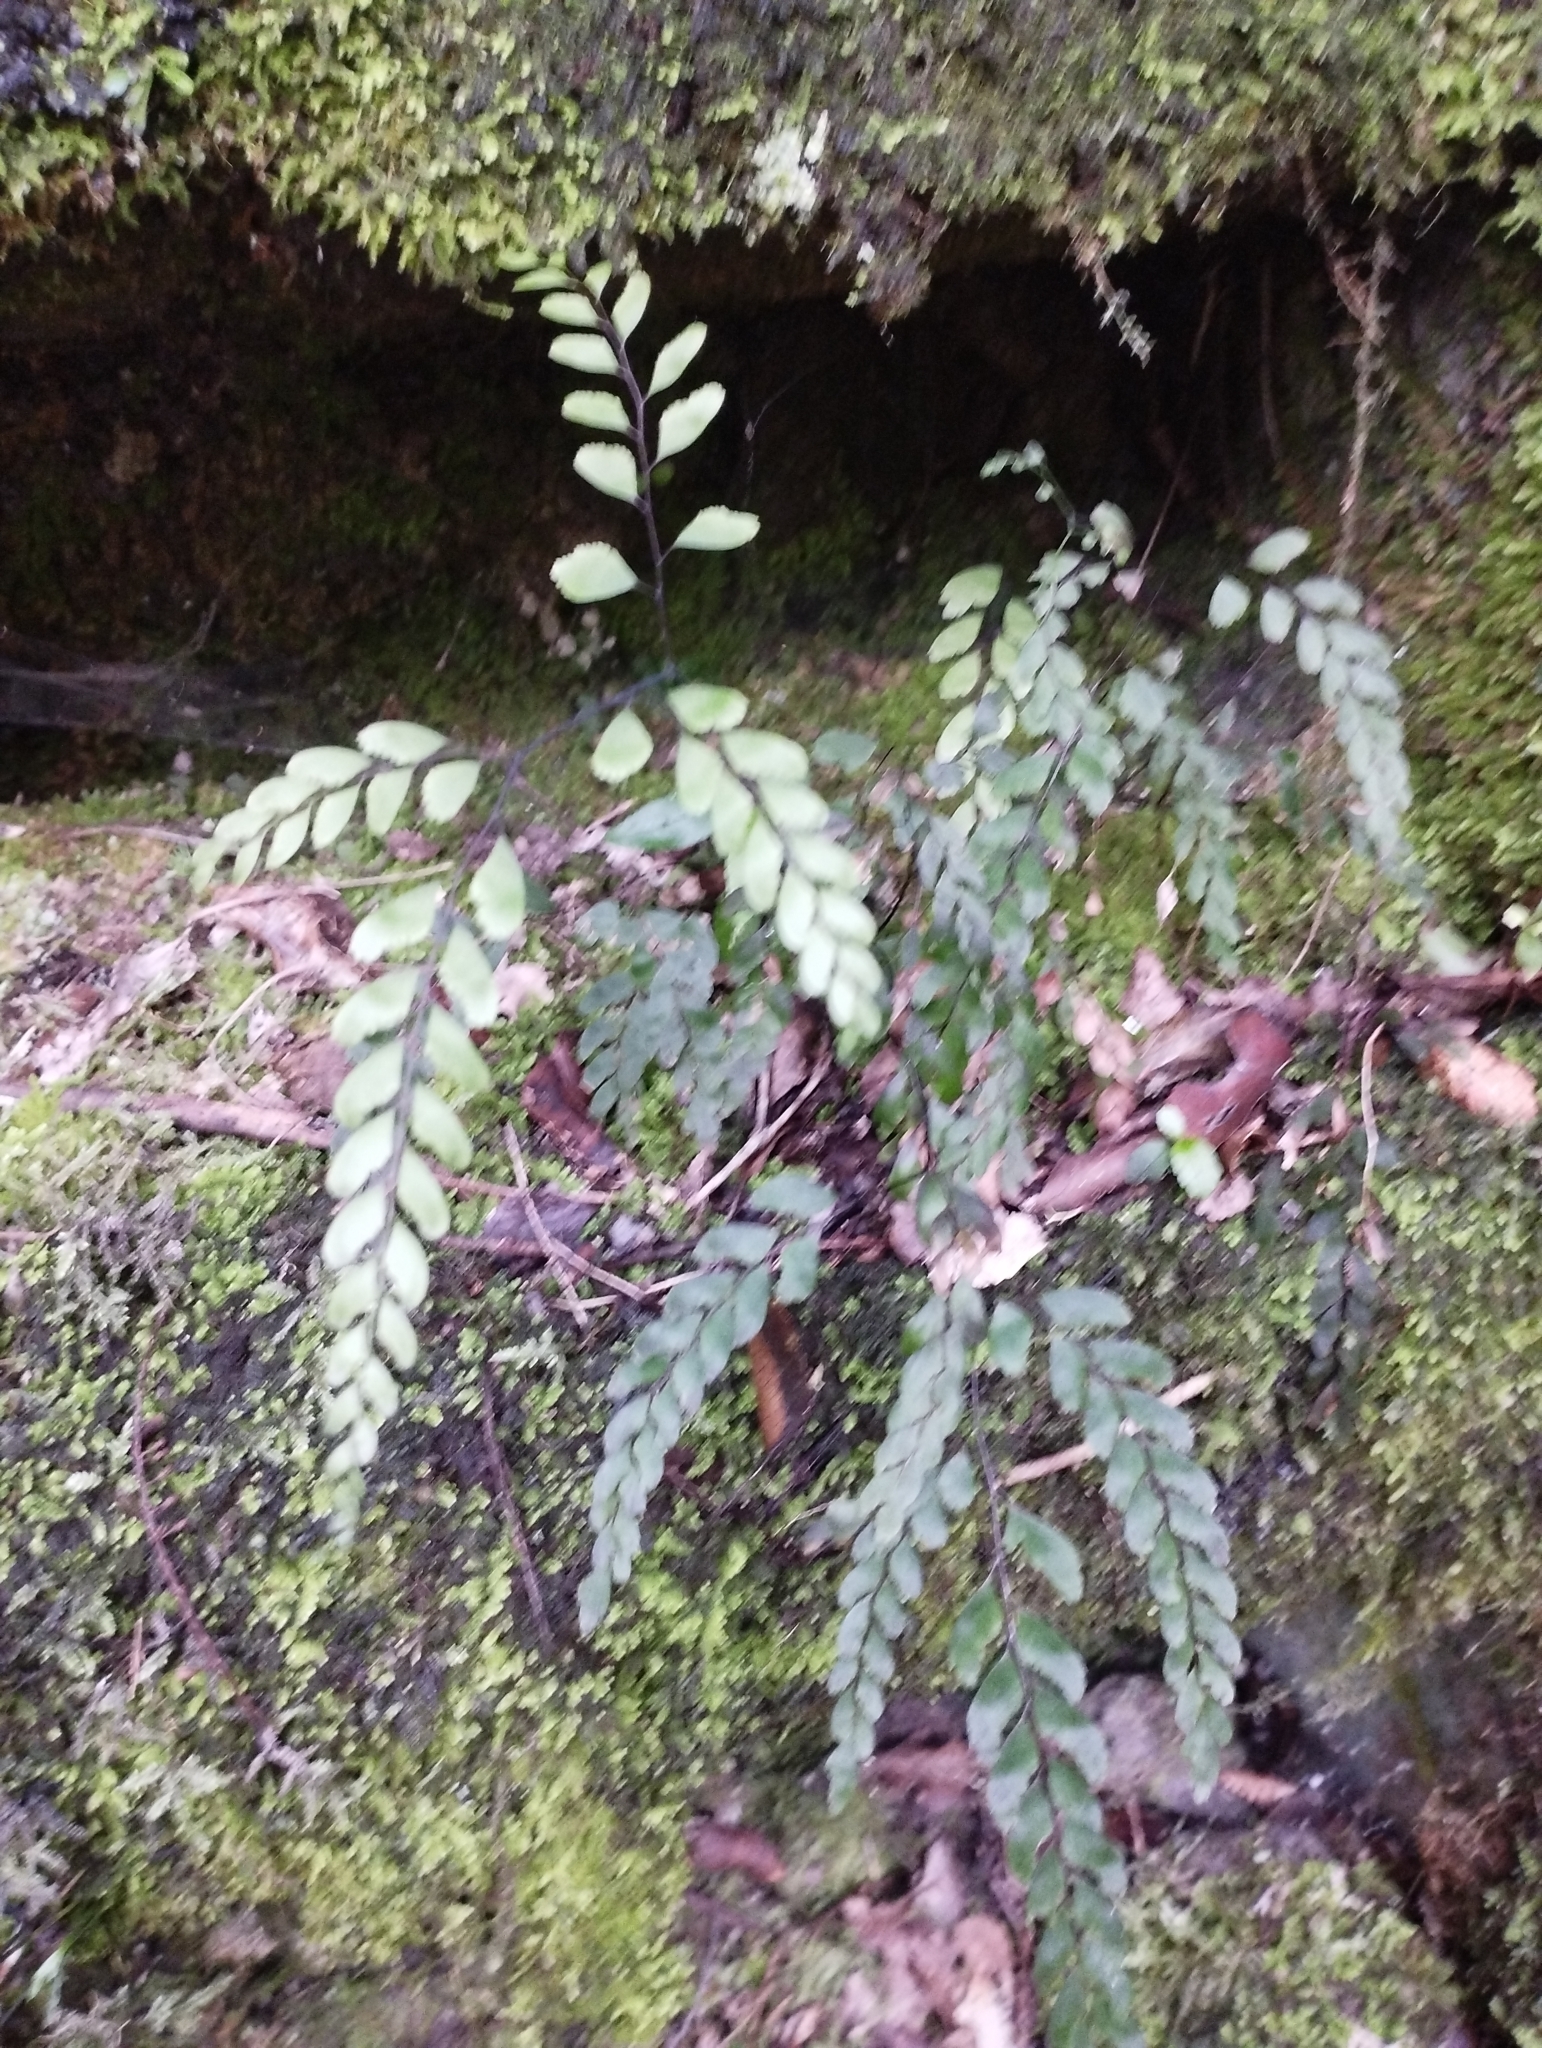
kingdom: Plantae
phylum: Tracheophyta
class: Polypodiopsida
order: Polypodiales
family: Pteridaceae
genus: Adiantum
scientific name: Adiantum cunninghamii
